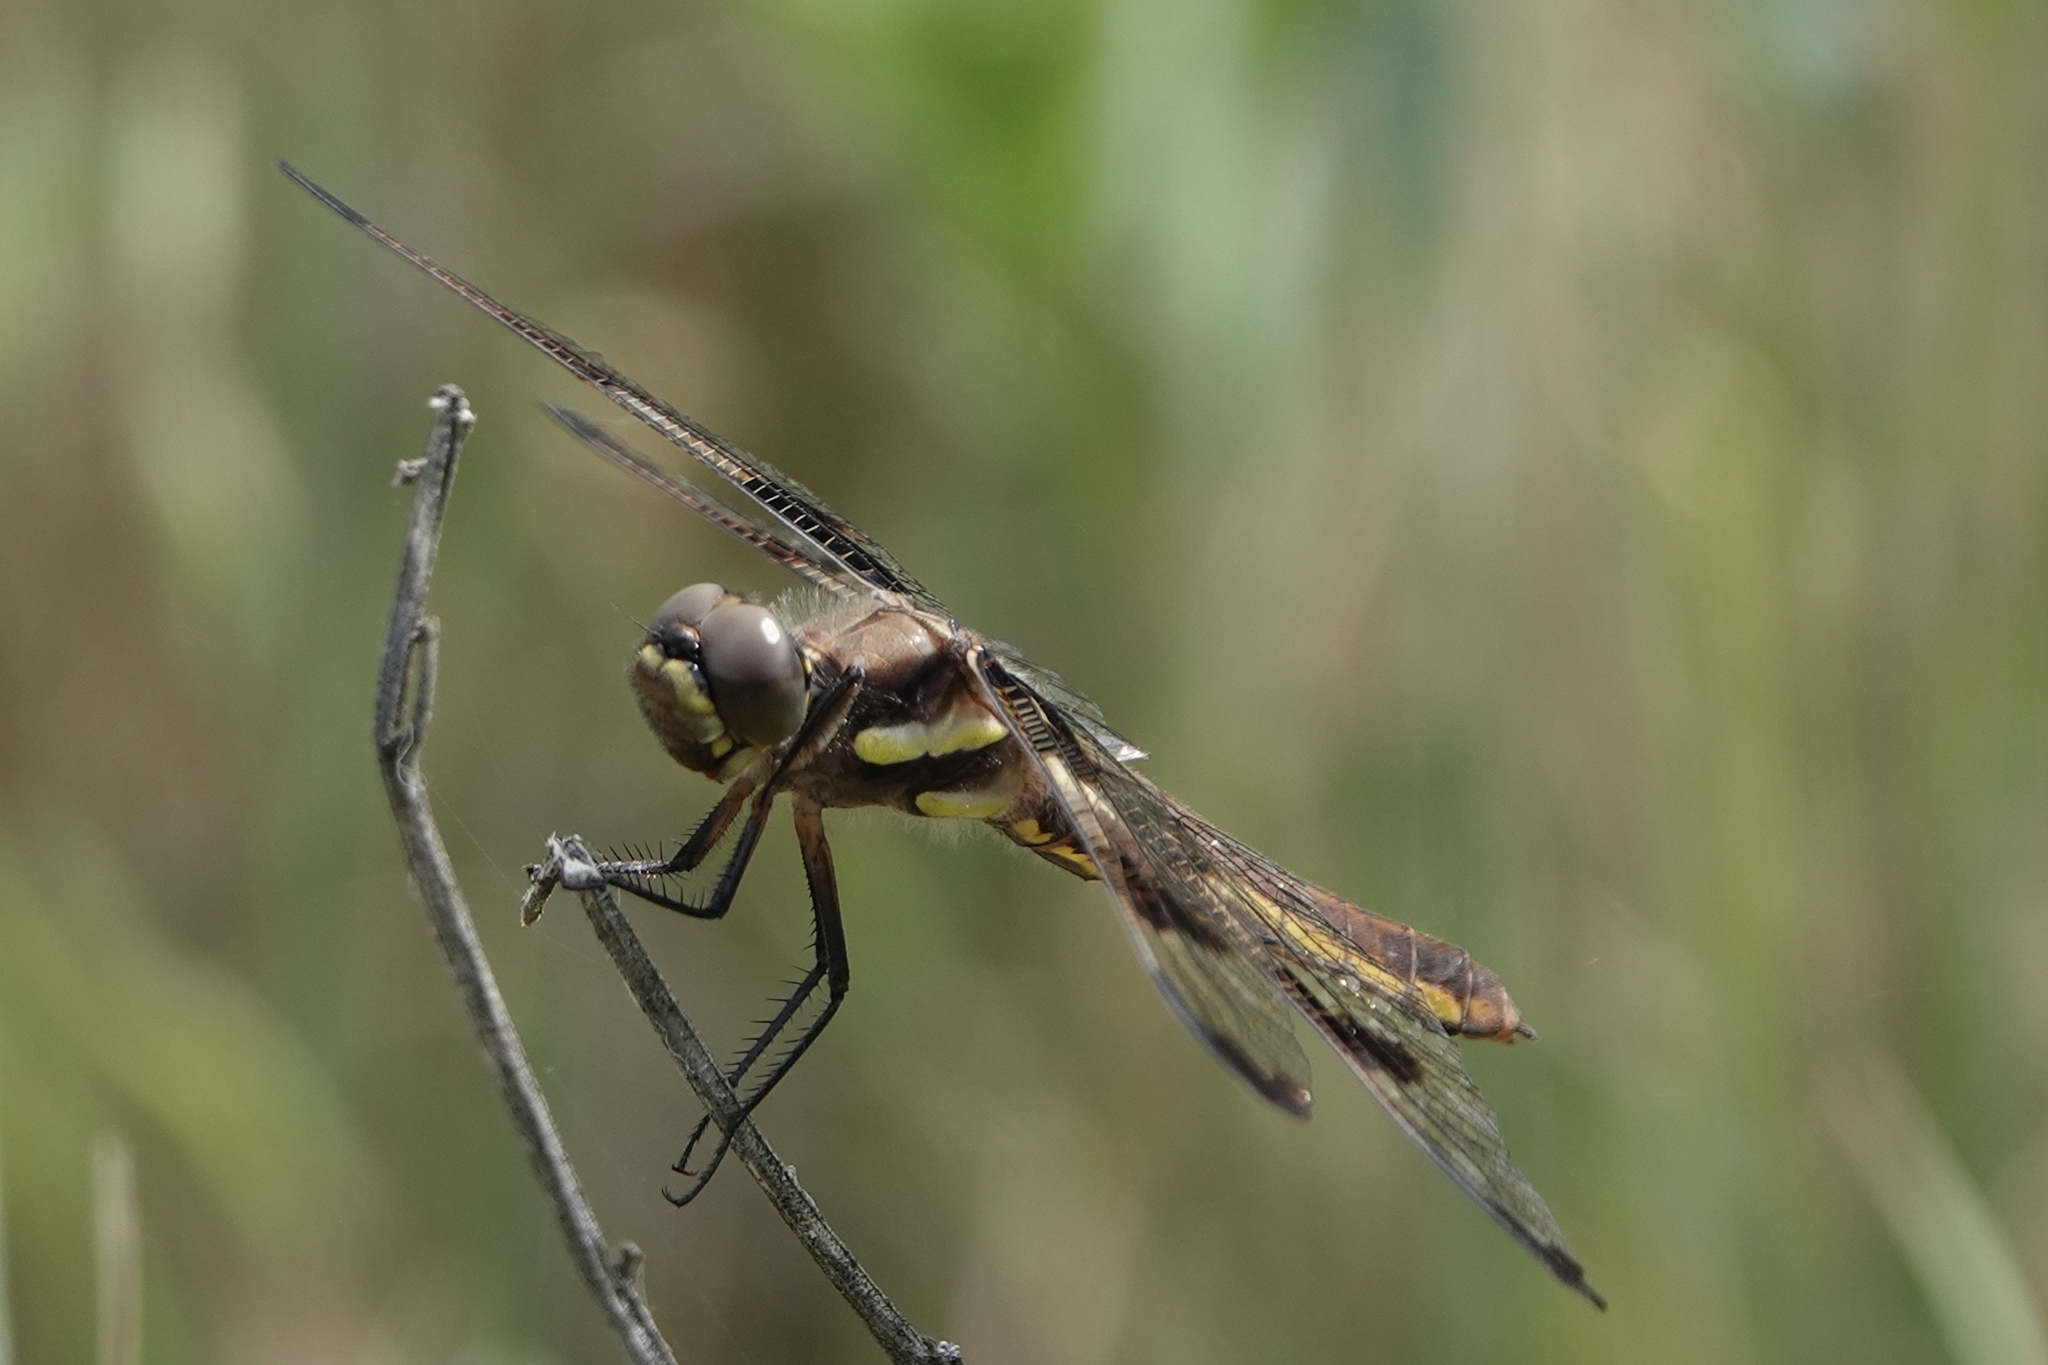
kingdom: Animalia
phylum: Arthropoda
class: Insecta
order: Odonata
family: Libellulidae
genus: Libellula
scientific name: Libellula pulchella
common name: Twelve-spotted skimmer
